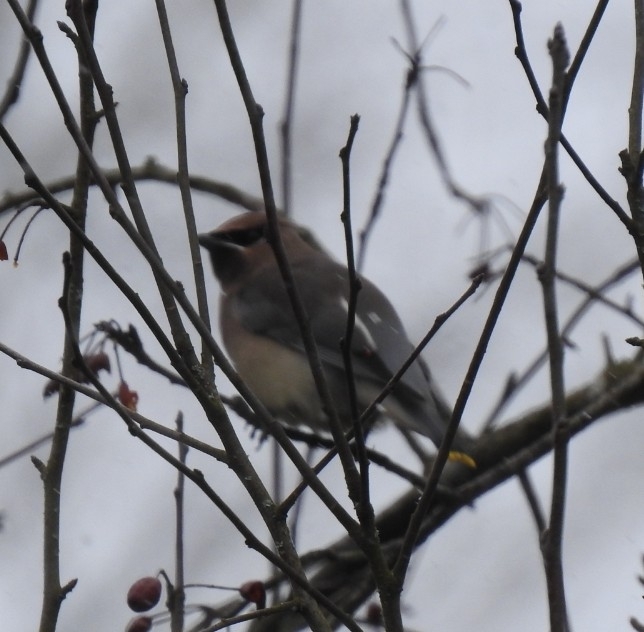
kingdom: Animalia
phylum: Chordata
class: Aves
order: Passeriformes
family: Bombycillidae
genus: Bombycilla
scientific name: Bombycilla cedrorum
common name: Cedar waxwing
